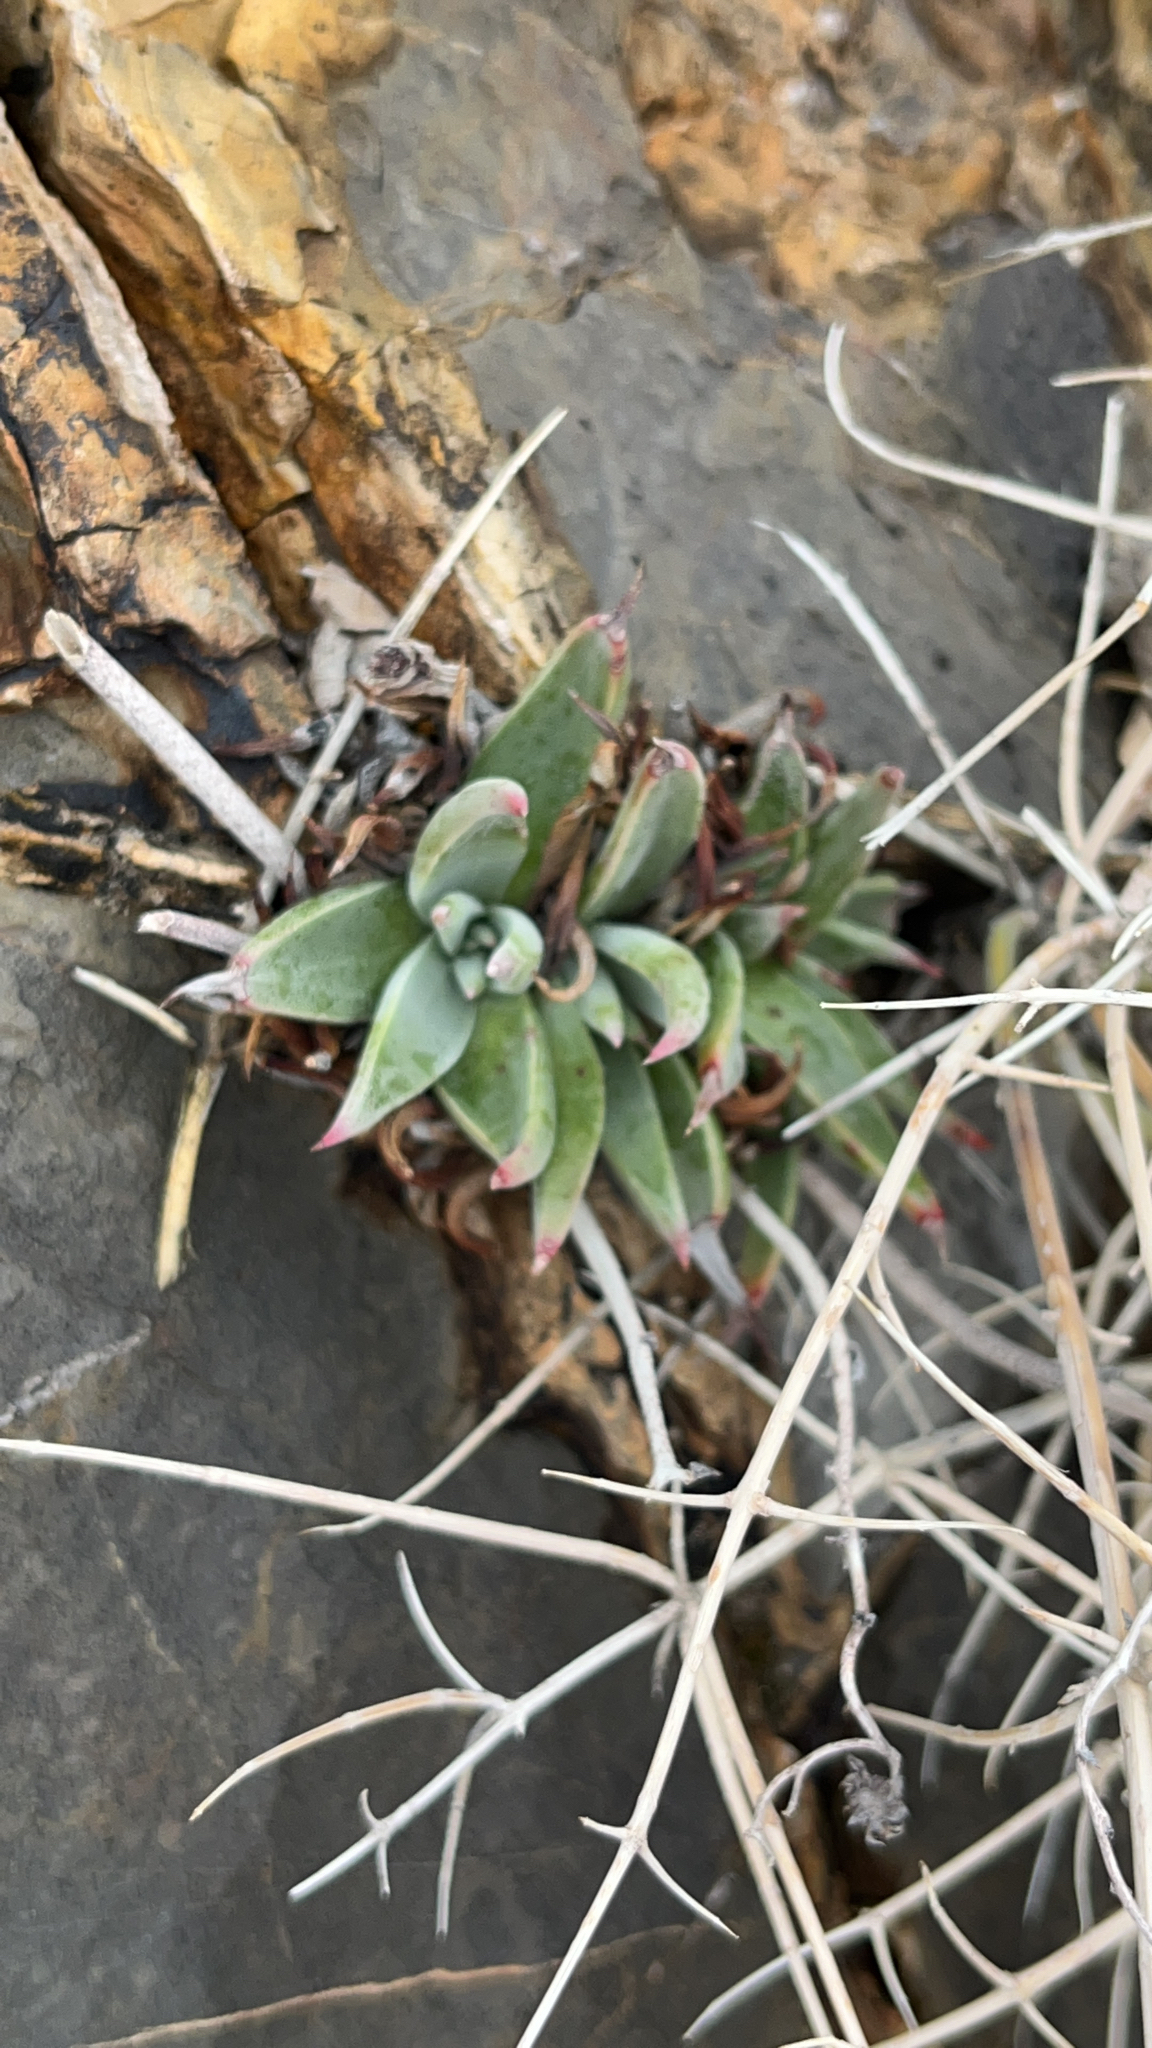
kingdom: Plantae
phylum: Tracheophyta
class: Magnoliopsida
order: Saxifragales
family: Crassulaceae
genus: Dudleya
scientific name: Dudleya saxosa
